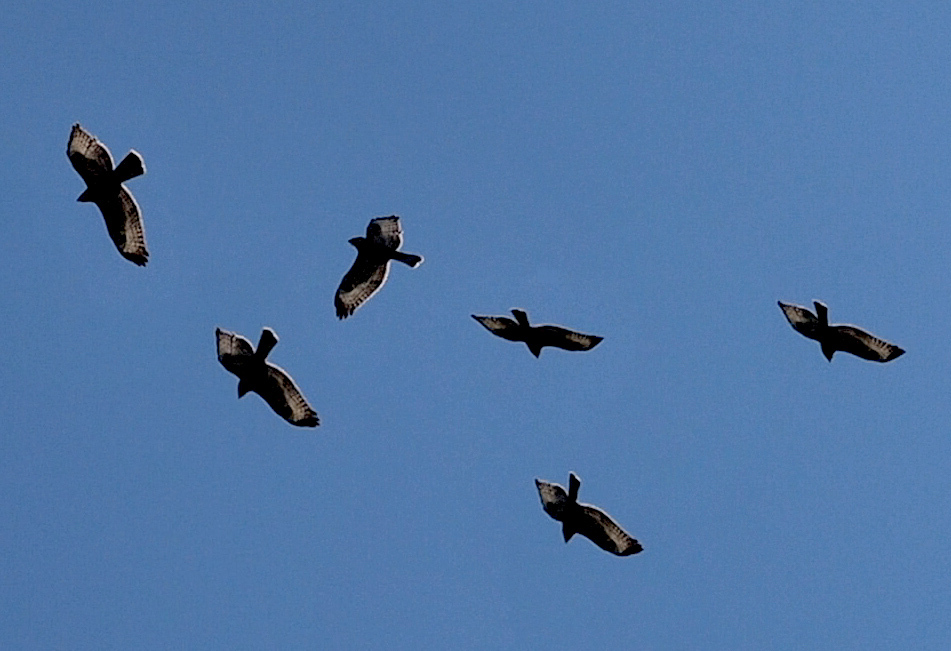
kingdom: Animalia
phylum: Chordata
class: Aves
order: Accipitriformes
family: Accipitridae
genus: Buteo
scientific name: Buteo buteo
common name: Common buzzard
